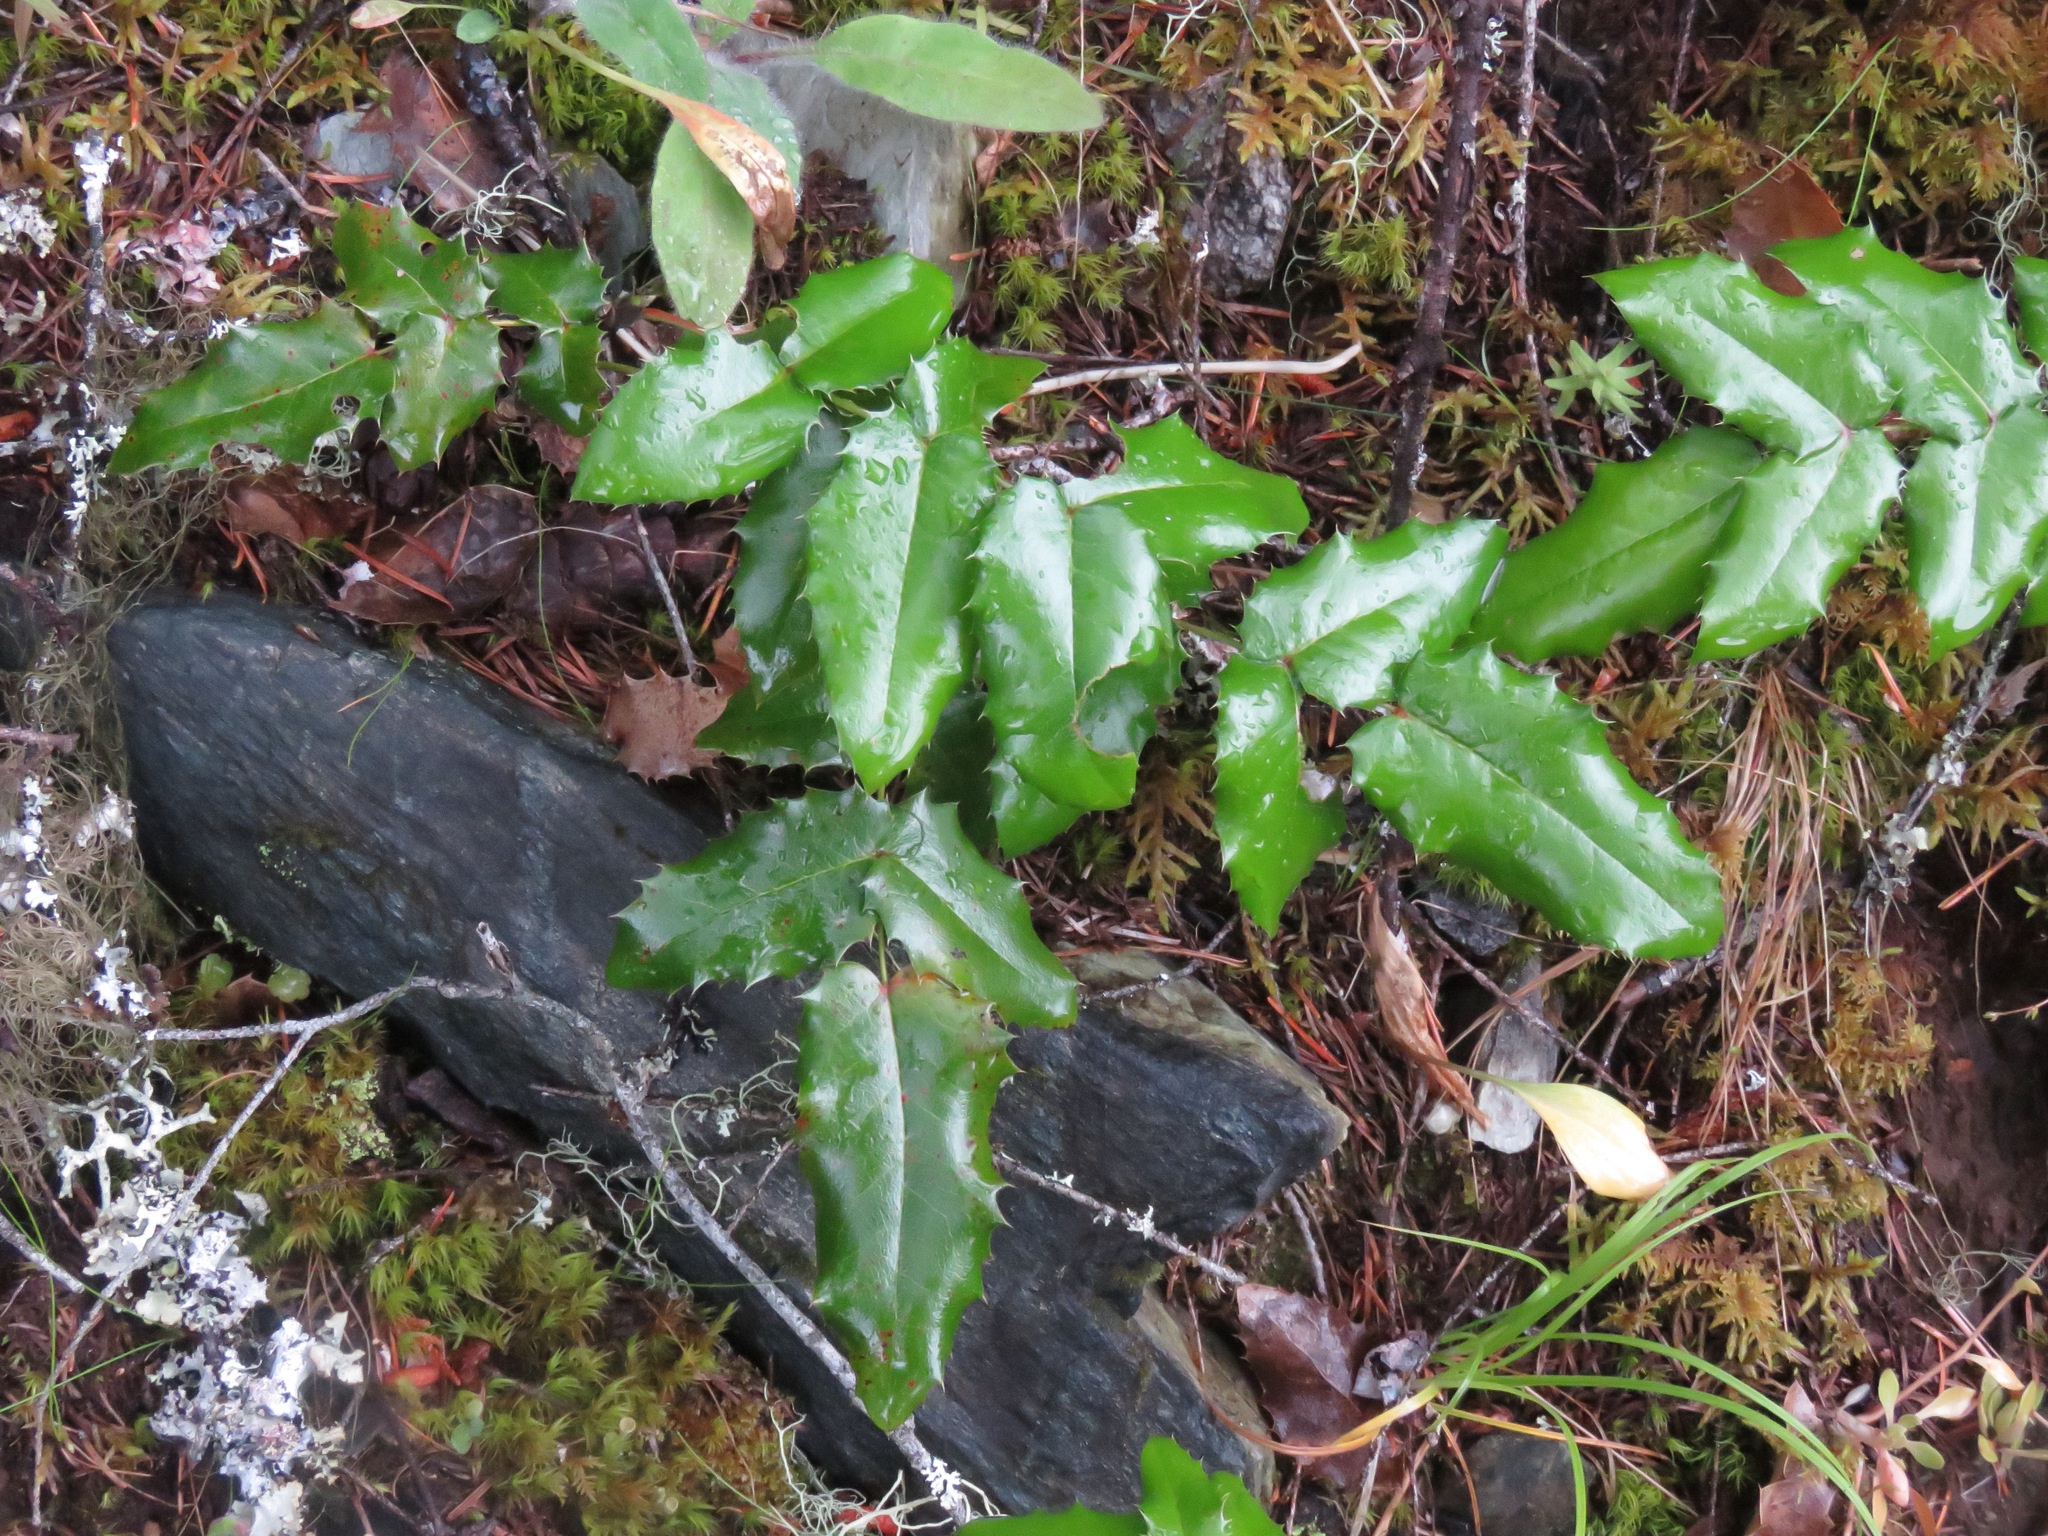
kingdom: Plantae
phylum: Tracheophyta
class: Magnoliopsida
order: Ranunculales
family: Berberidaceae
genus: Mahonia
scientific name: Mahonia aquifolium
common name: Oregon-grape
